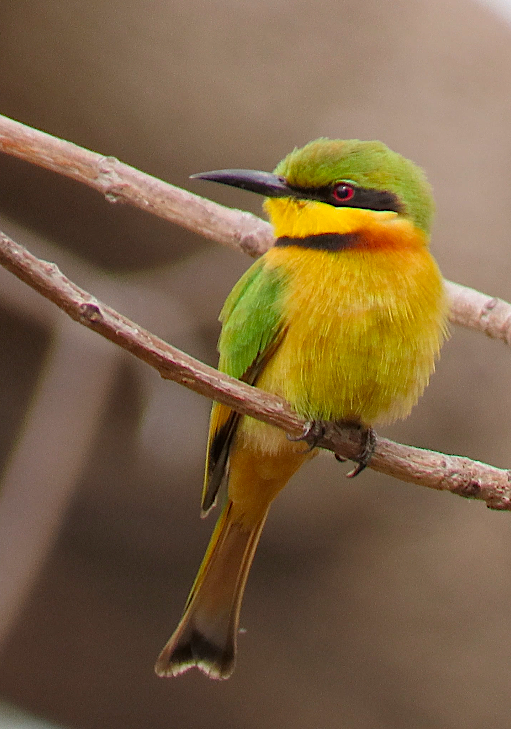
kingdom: Animalia
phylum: Chordata
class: Aves
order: Coraciiformes
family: Meropidae
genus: Merops
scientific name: Merops pusillus
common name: Little bee-eater
